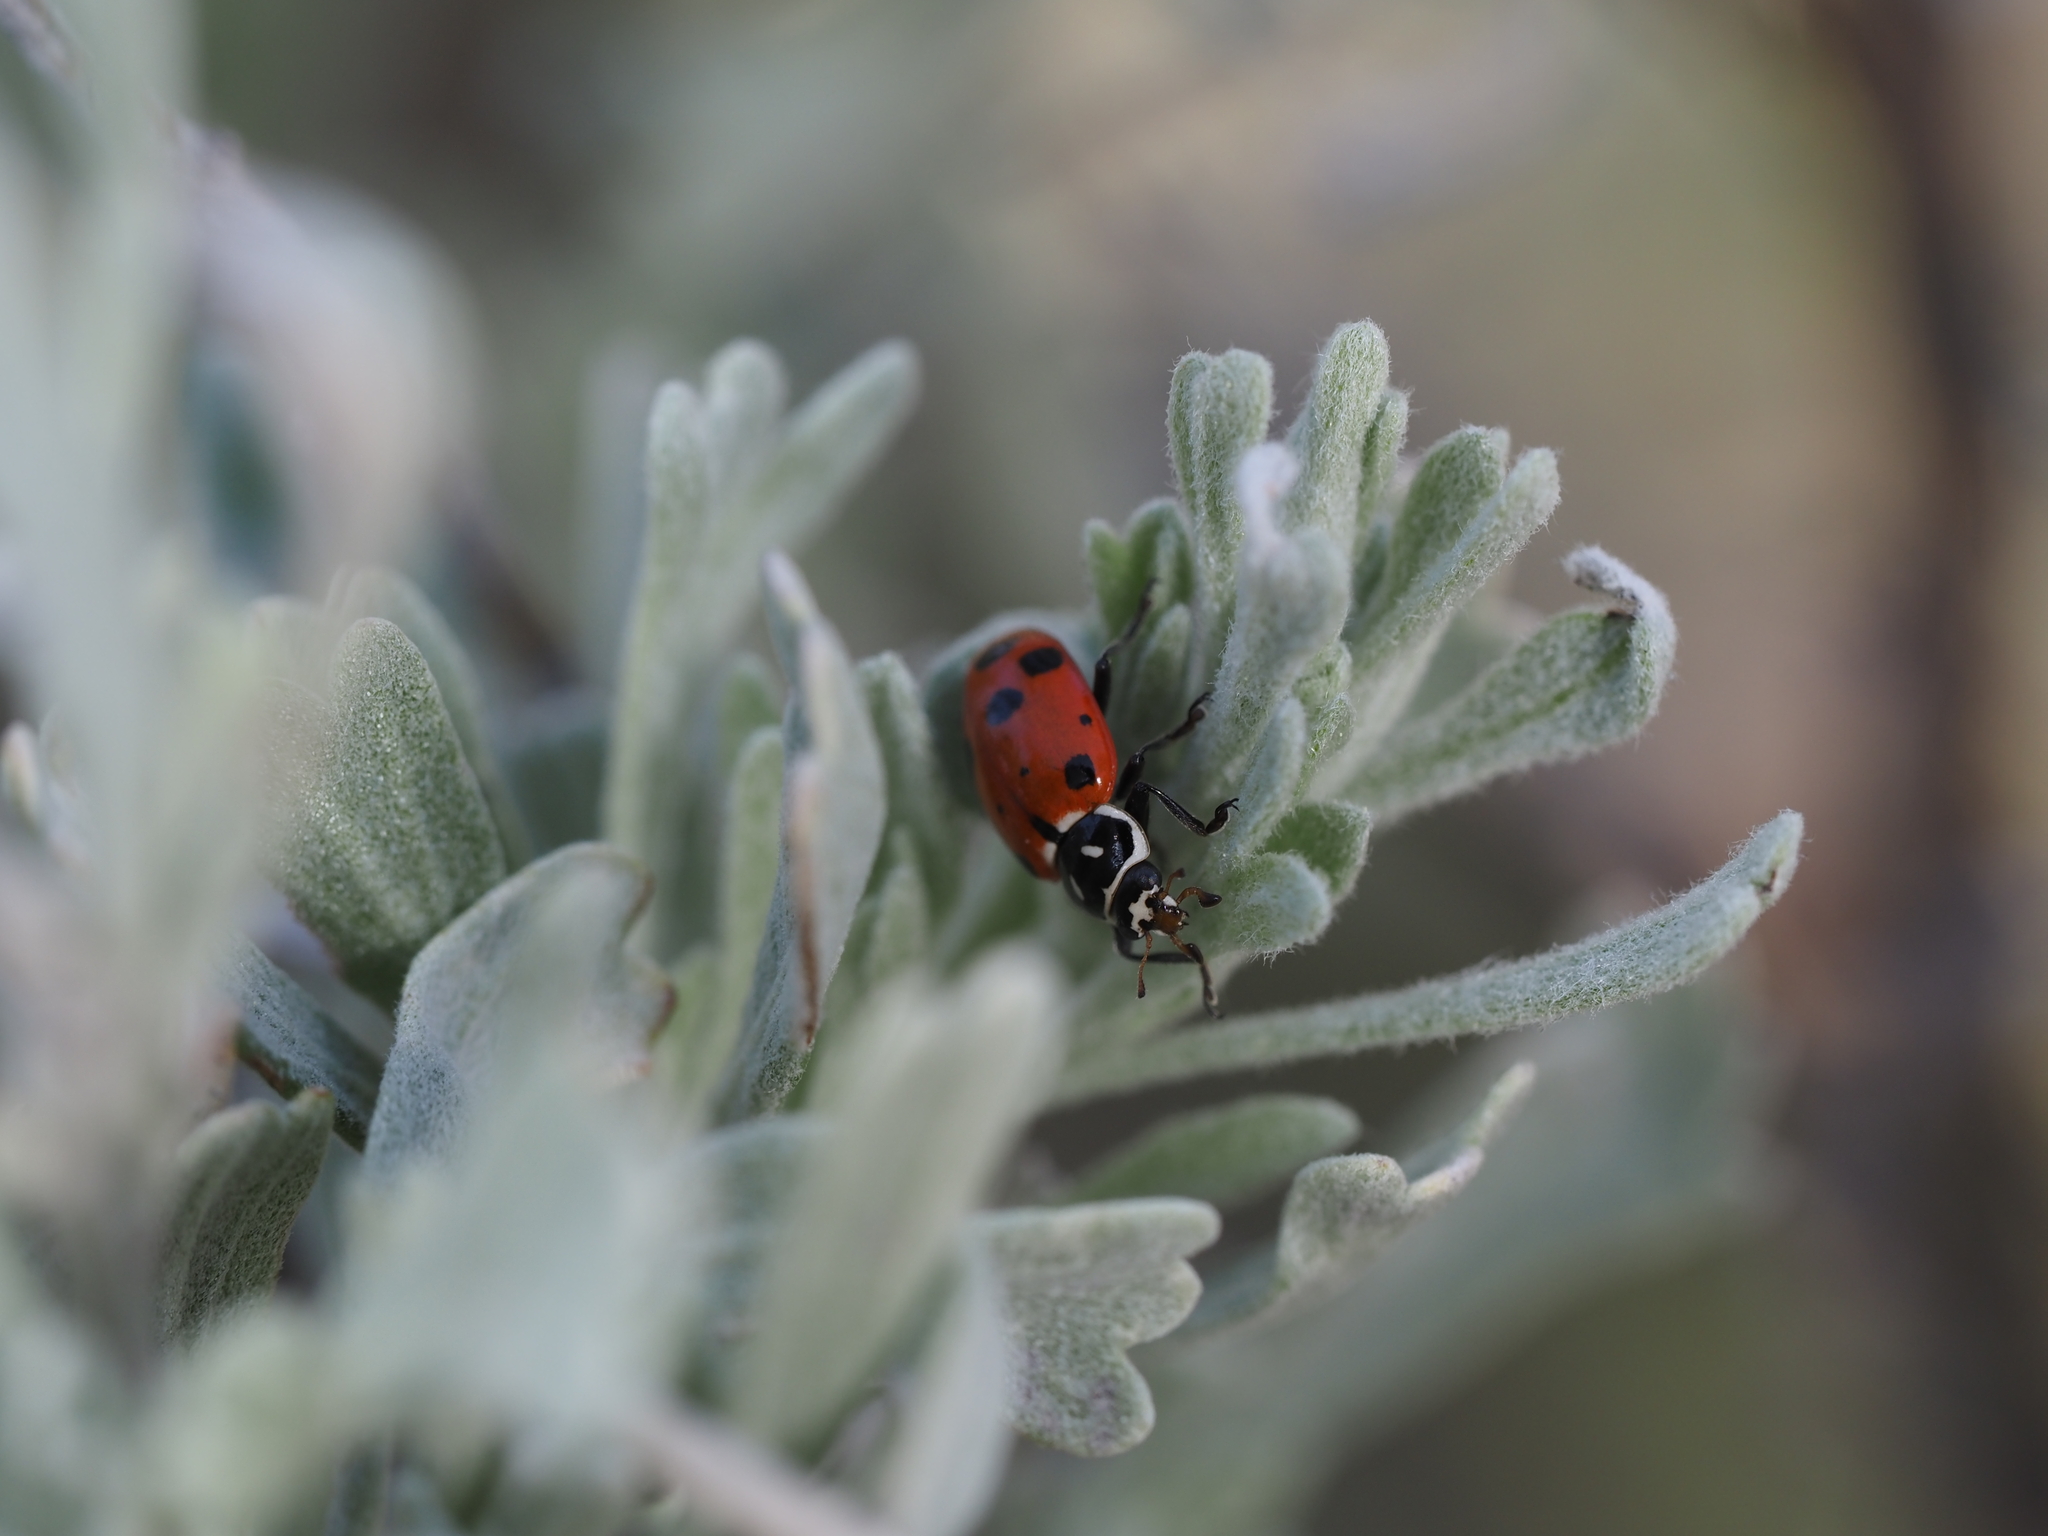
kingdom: Animalia
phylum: Arthropoda
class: Insecta
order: Coleoptera
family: Coccinellidae
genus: Hippodamia
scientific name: Hippodamia convergens
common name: Convergent lady beetle
